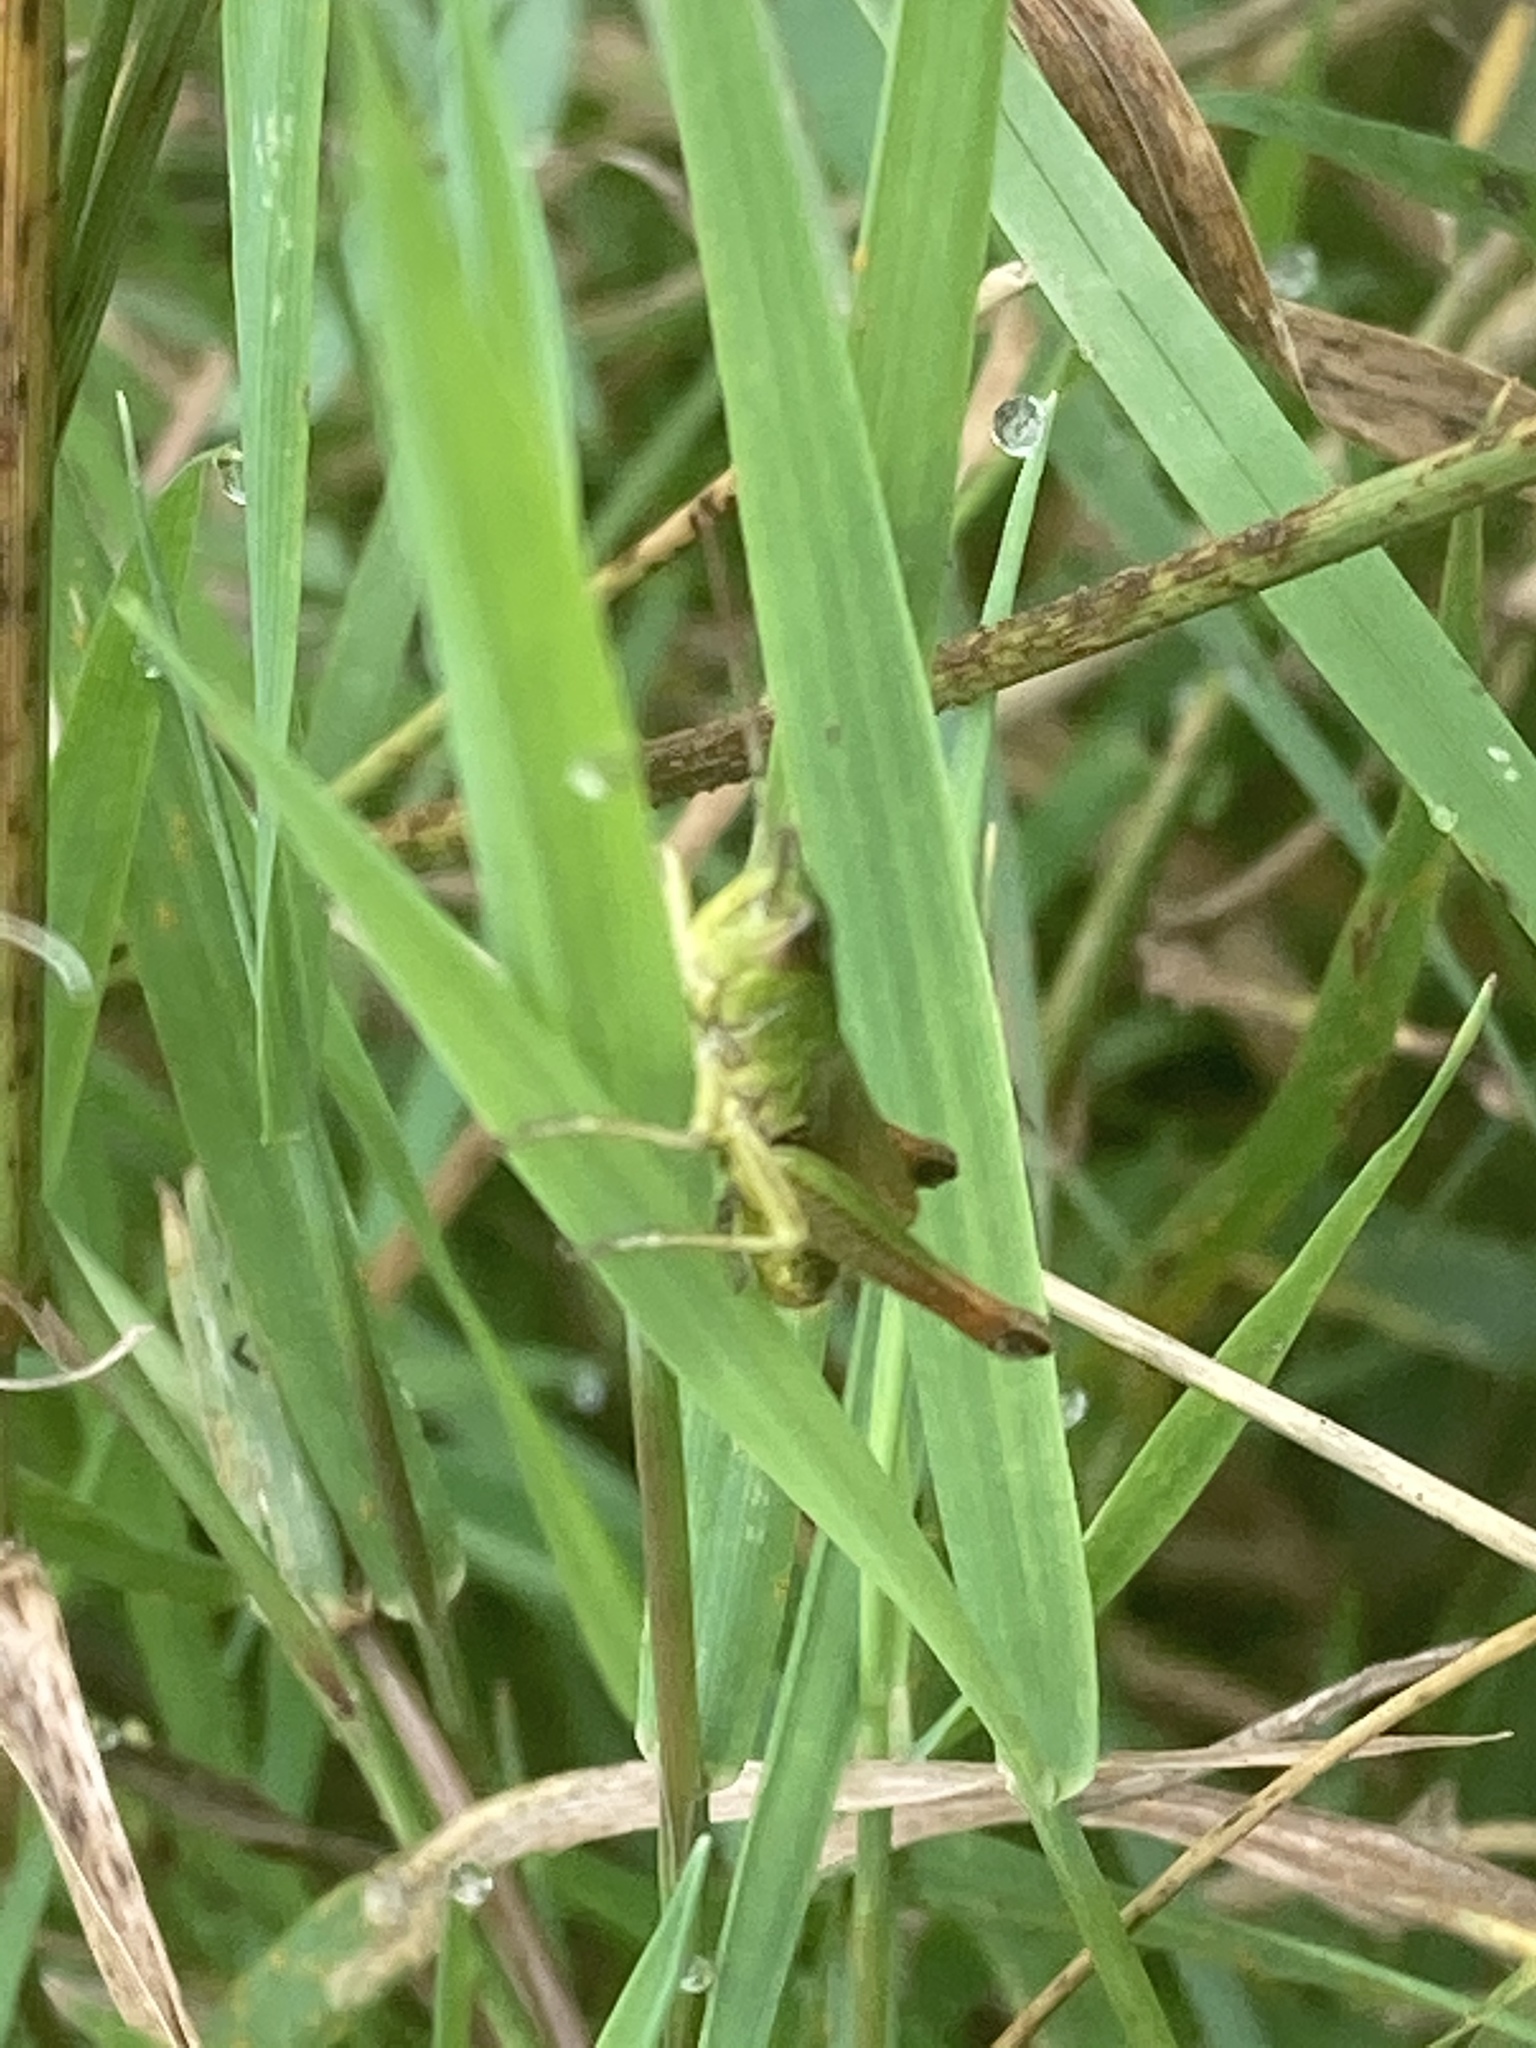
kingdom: Animalia
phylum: Arthropoda
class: Insecta
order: Orthoptera
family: Acrididae
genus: Pseudochorthippus
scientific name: Pseudochorthippus parallelus
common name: Meadow grasshopper
